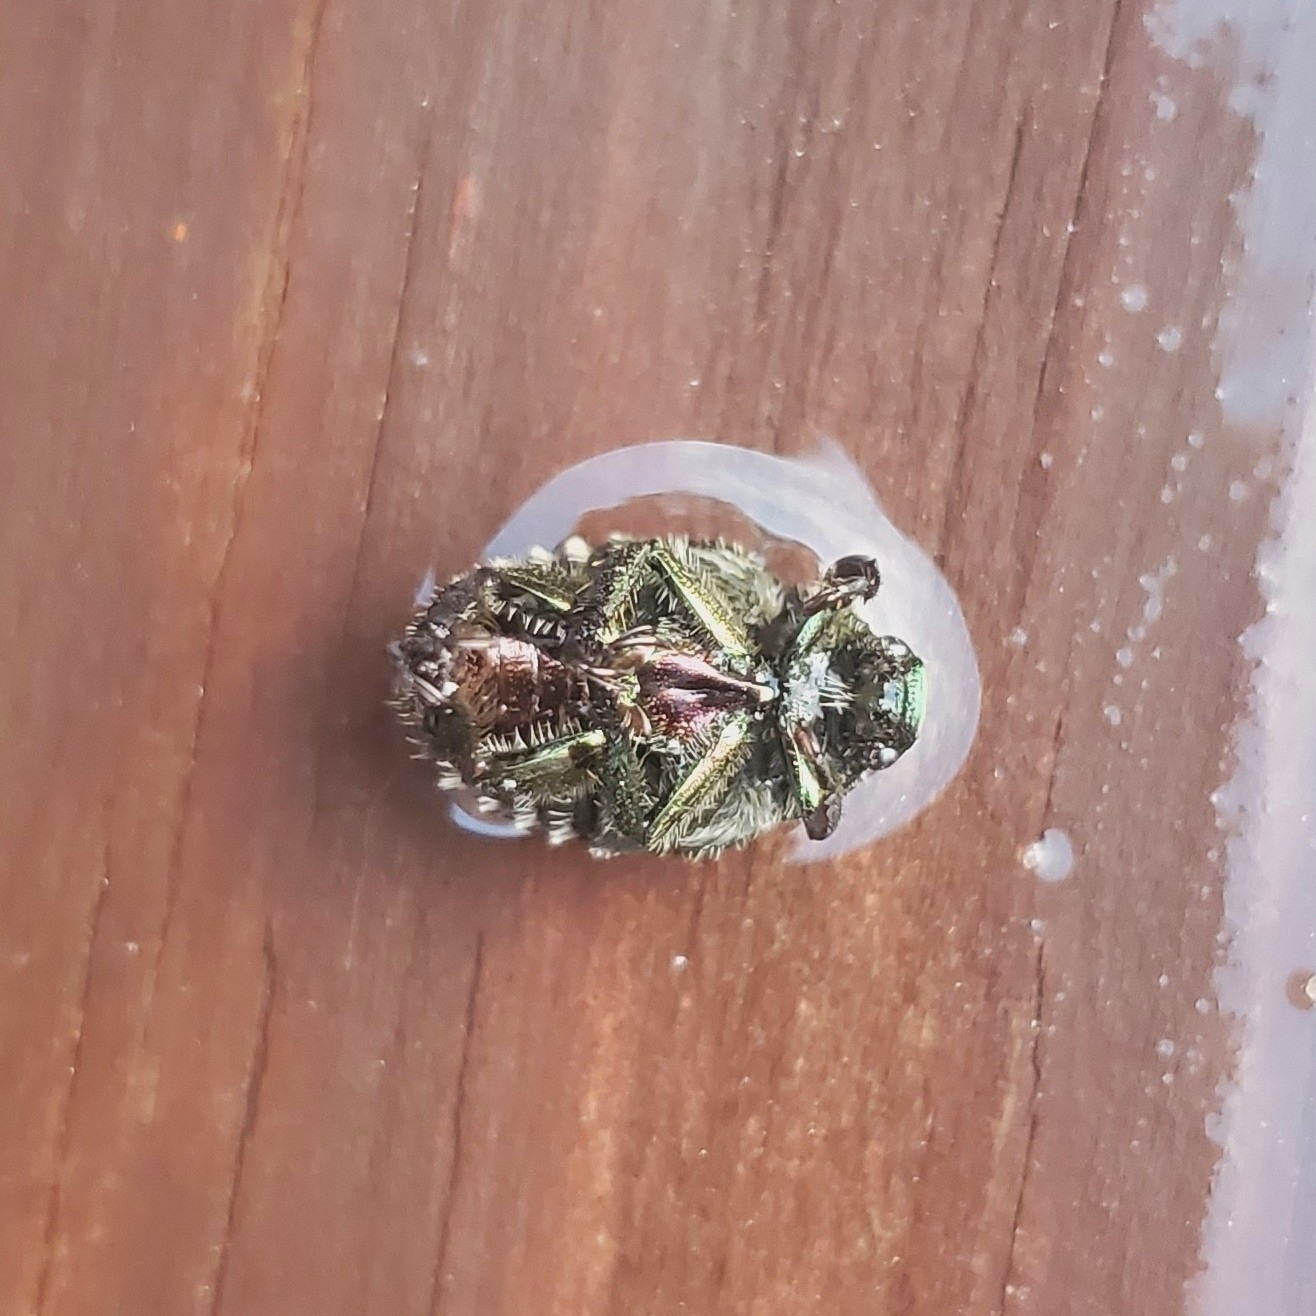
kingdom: Animalia
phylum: Arthropoda
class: Insecta
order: Coleoptera
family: Scarabaeidae
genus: Popillia
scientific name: Popillia japonica
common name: Japanese beetle
